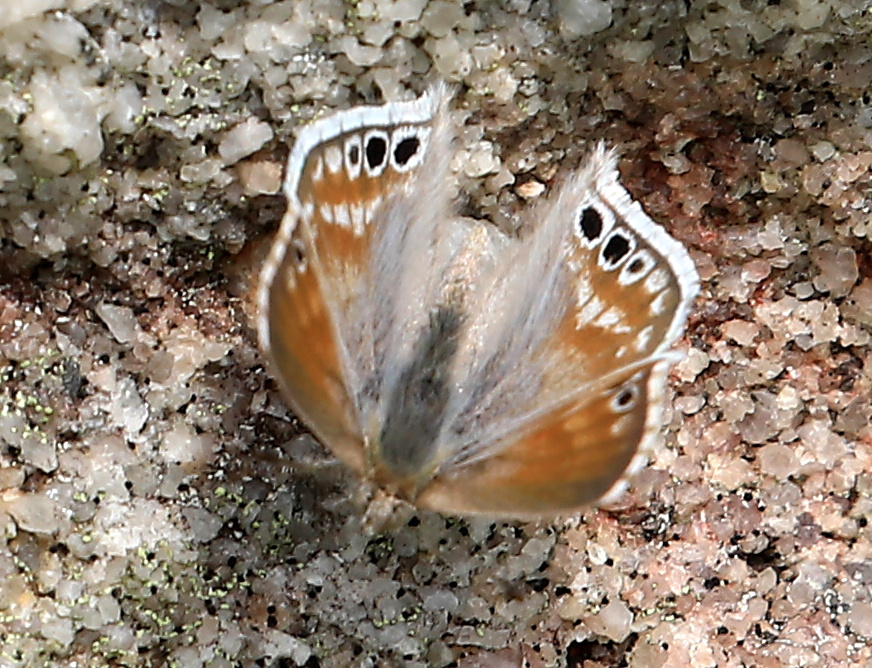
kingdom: Animalia
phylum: Arthropoda
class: Insecta
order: Lepidoptera
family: Lycaenidae
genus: Leptomyrina
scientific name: Leptomyrina gorgias
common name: Common black-eye
